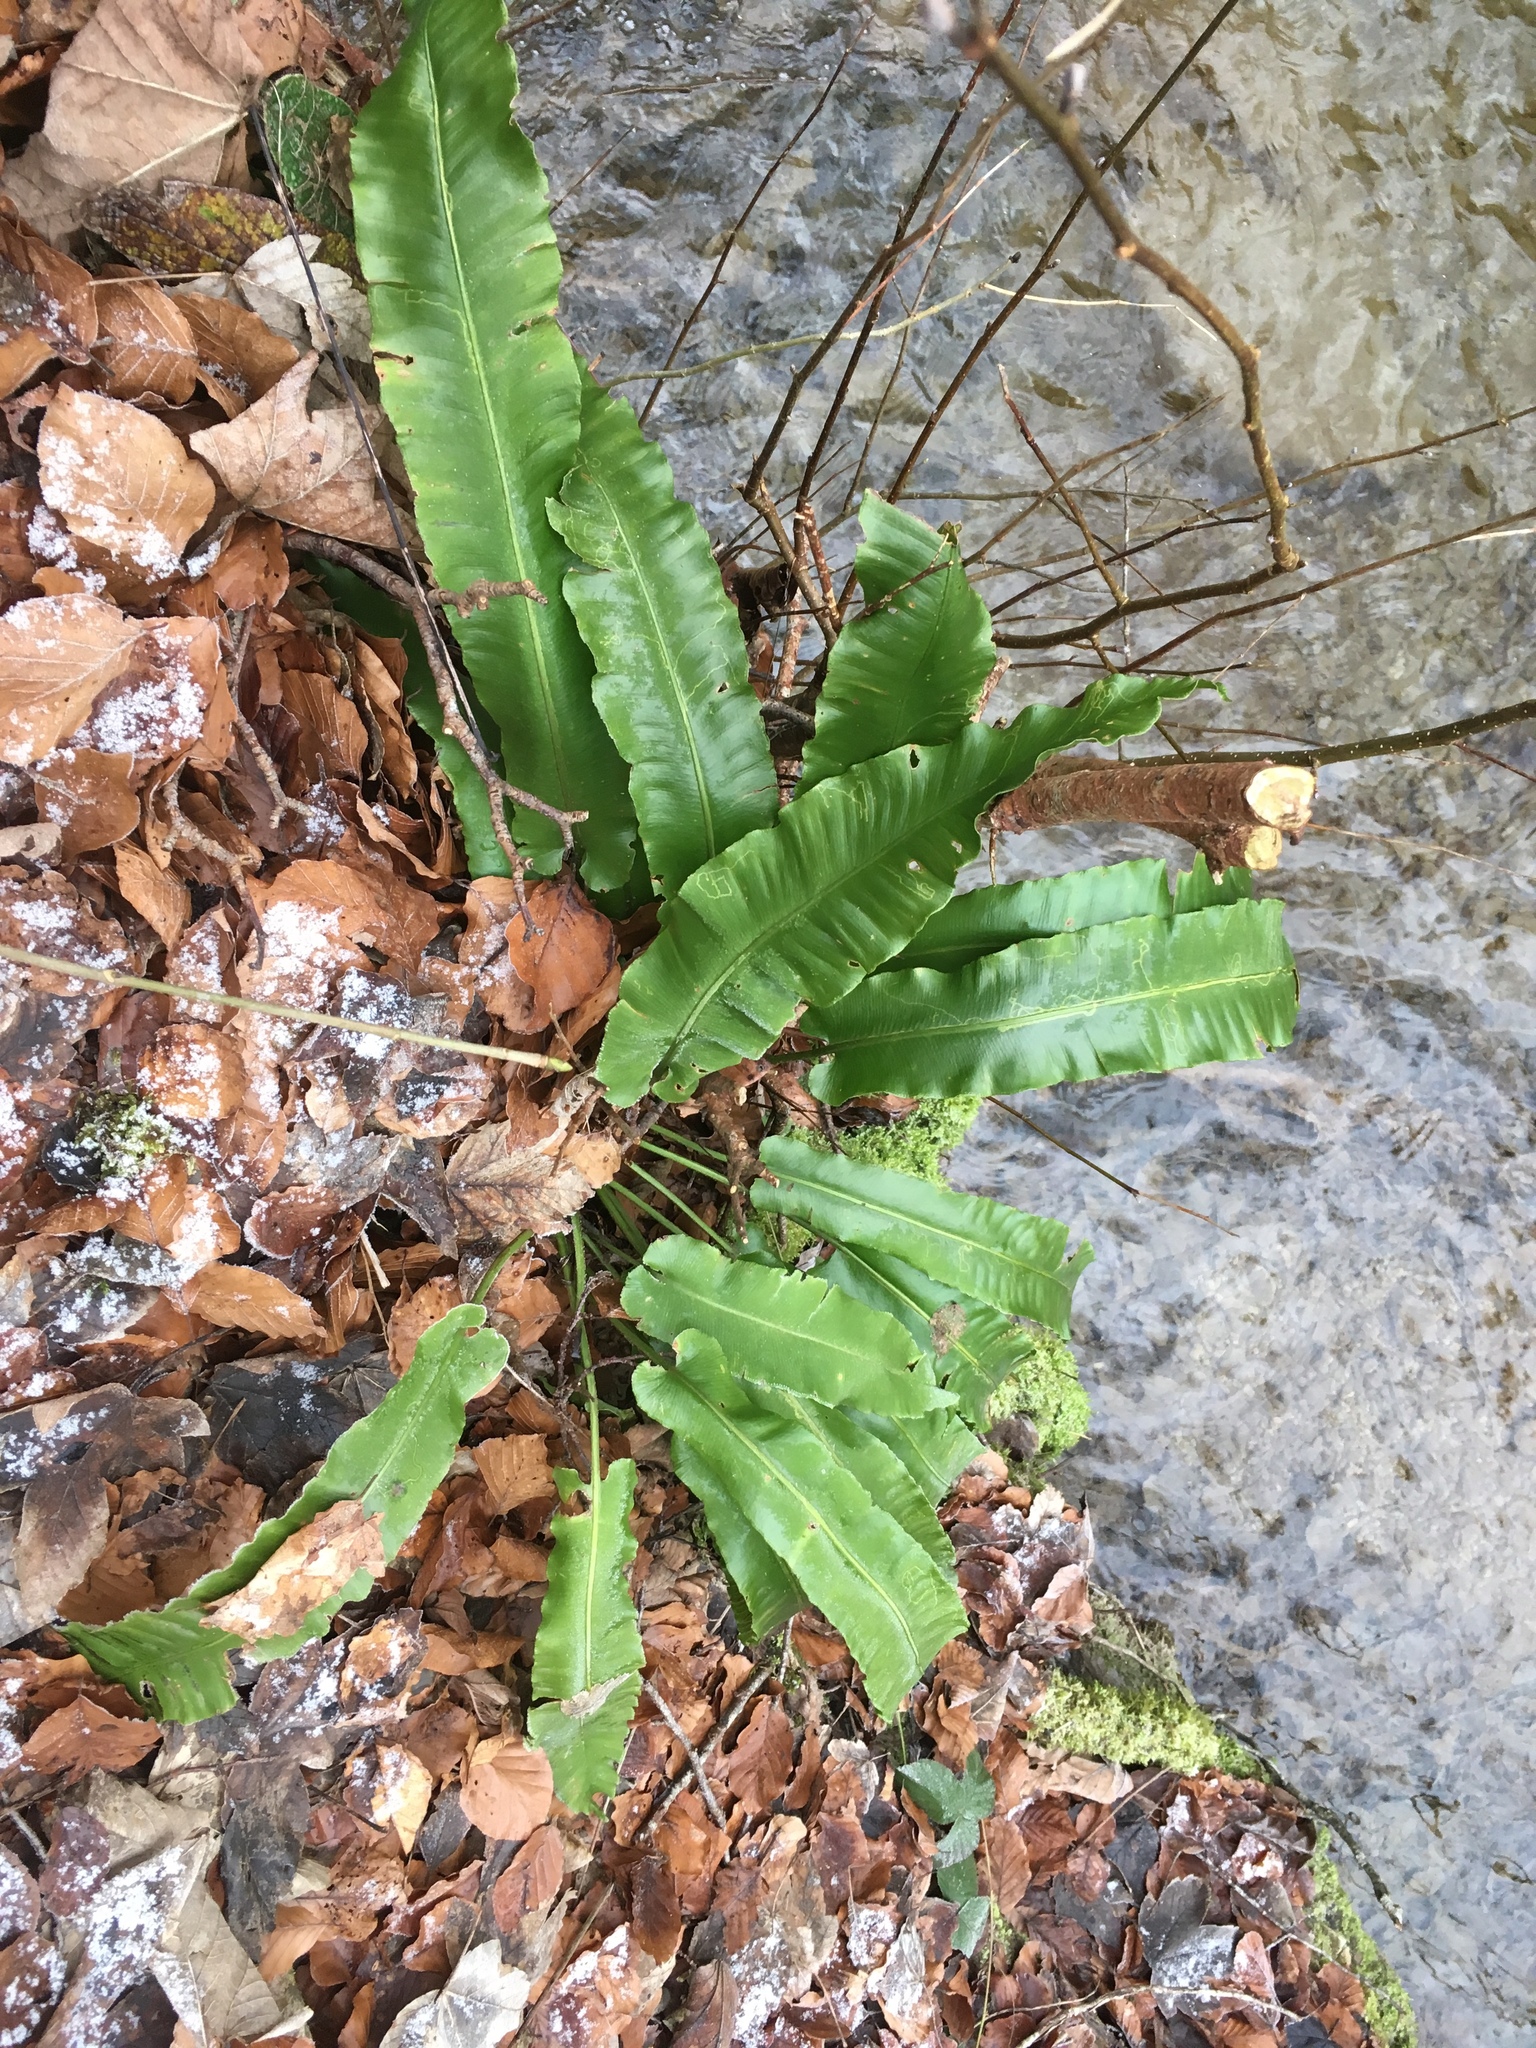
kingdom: Plantae
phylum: Tracheophyta
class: Polypodiopsida
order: Polypodiales
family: Aspleniaceae
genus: Asplenium
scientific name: Asplenium scolopendrium
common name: Hart's-tongue fern
